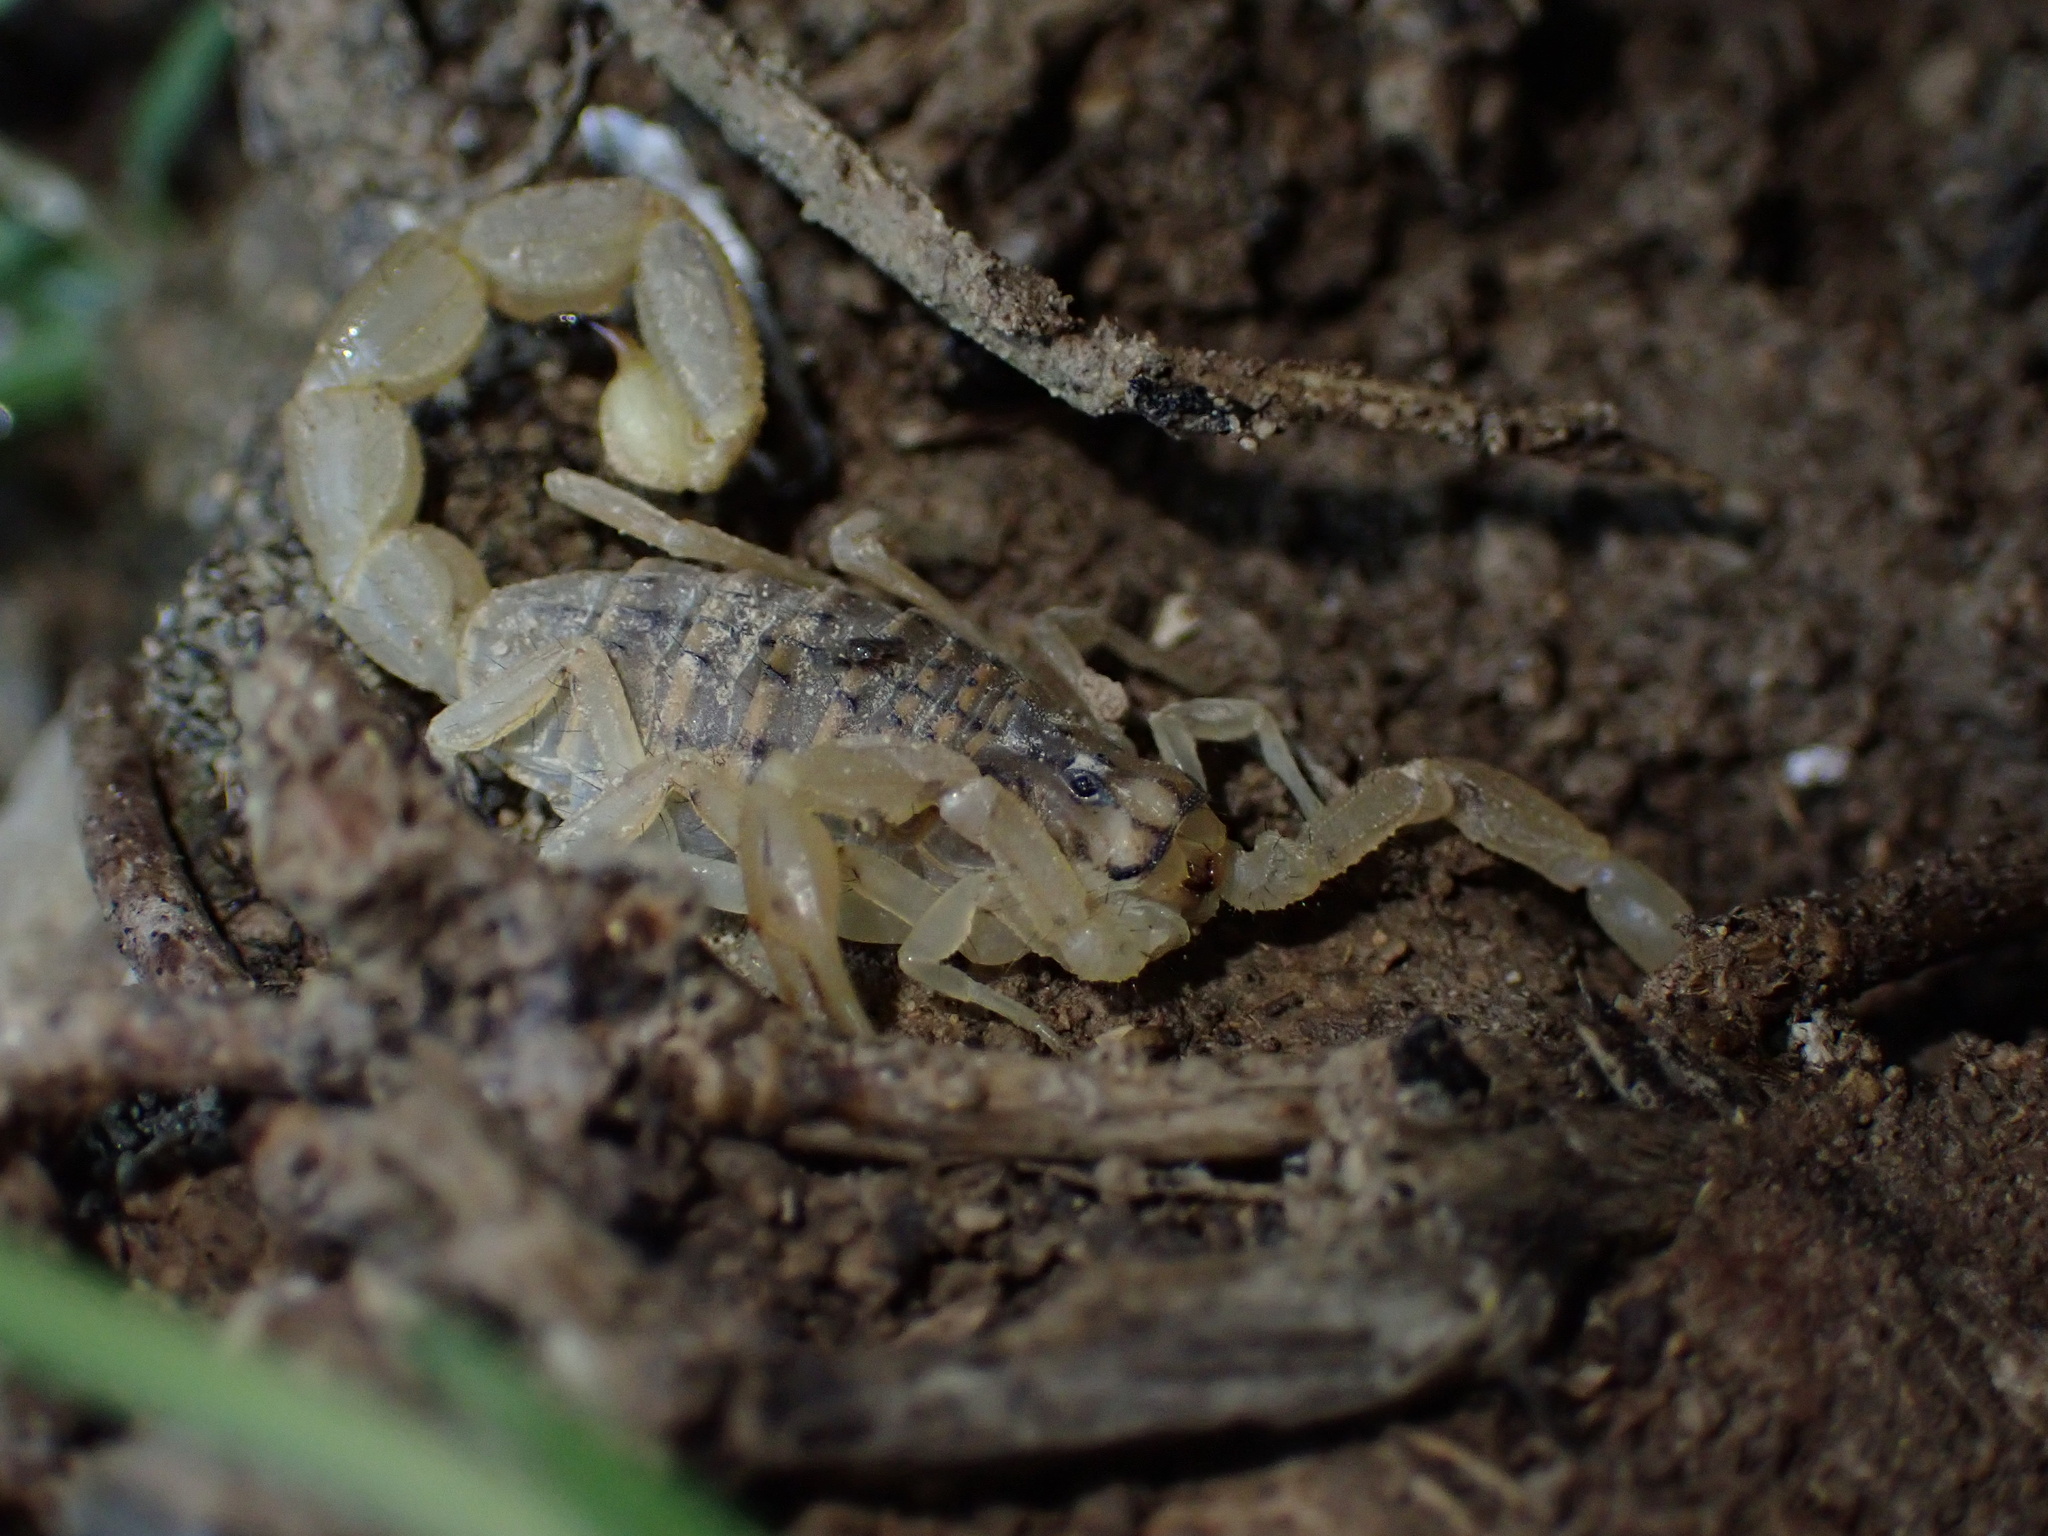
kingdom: Animalia
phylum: Arthropoda
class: Arachnida
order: Scorpiones
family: Buthidae
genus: Mesobuthus
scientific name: Mesobuthus phillipsi
